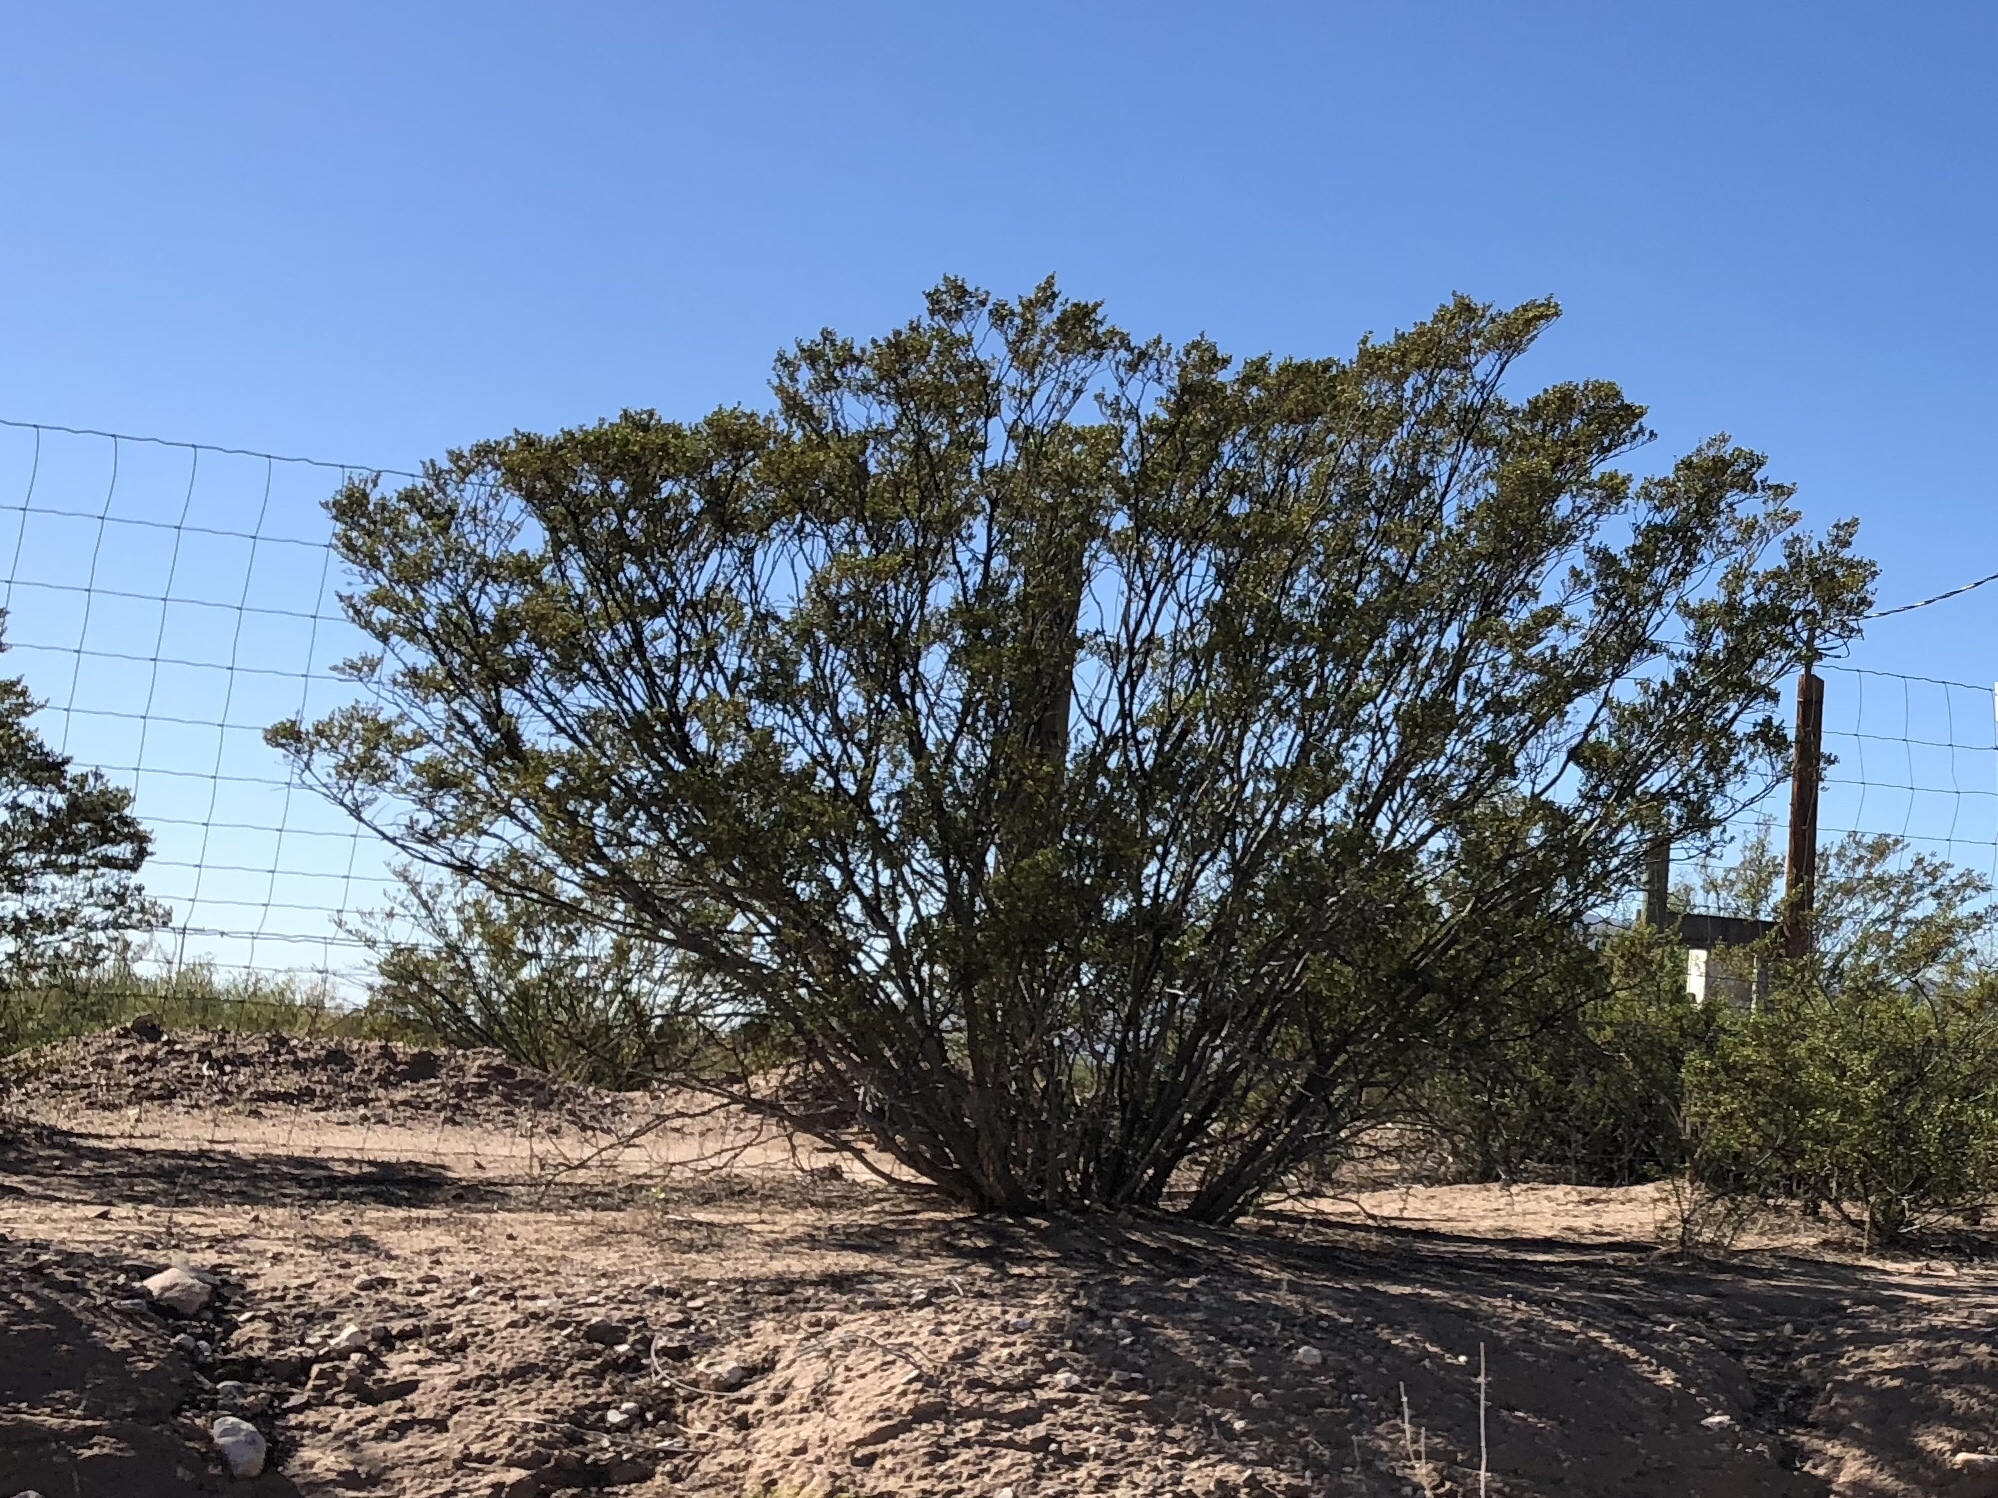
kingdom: Plantae
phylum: Tracheophyta
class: Magnoliopsida
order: Zygophyllales
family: Zygophyllaceae
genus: Larrea
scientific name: Larrea tridentata
